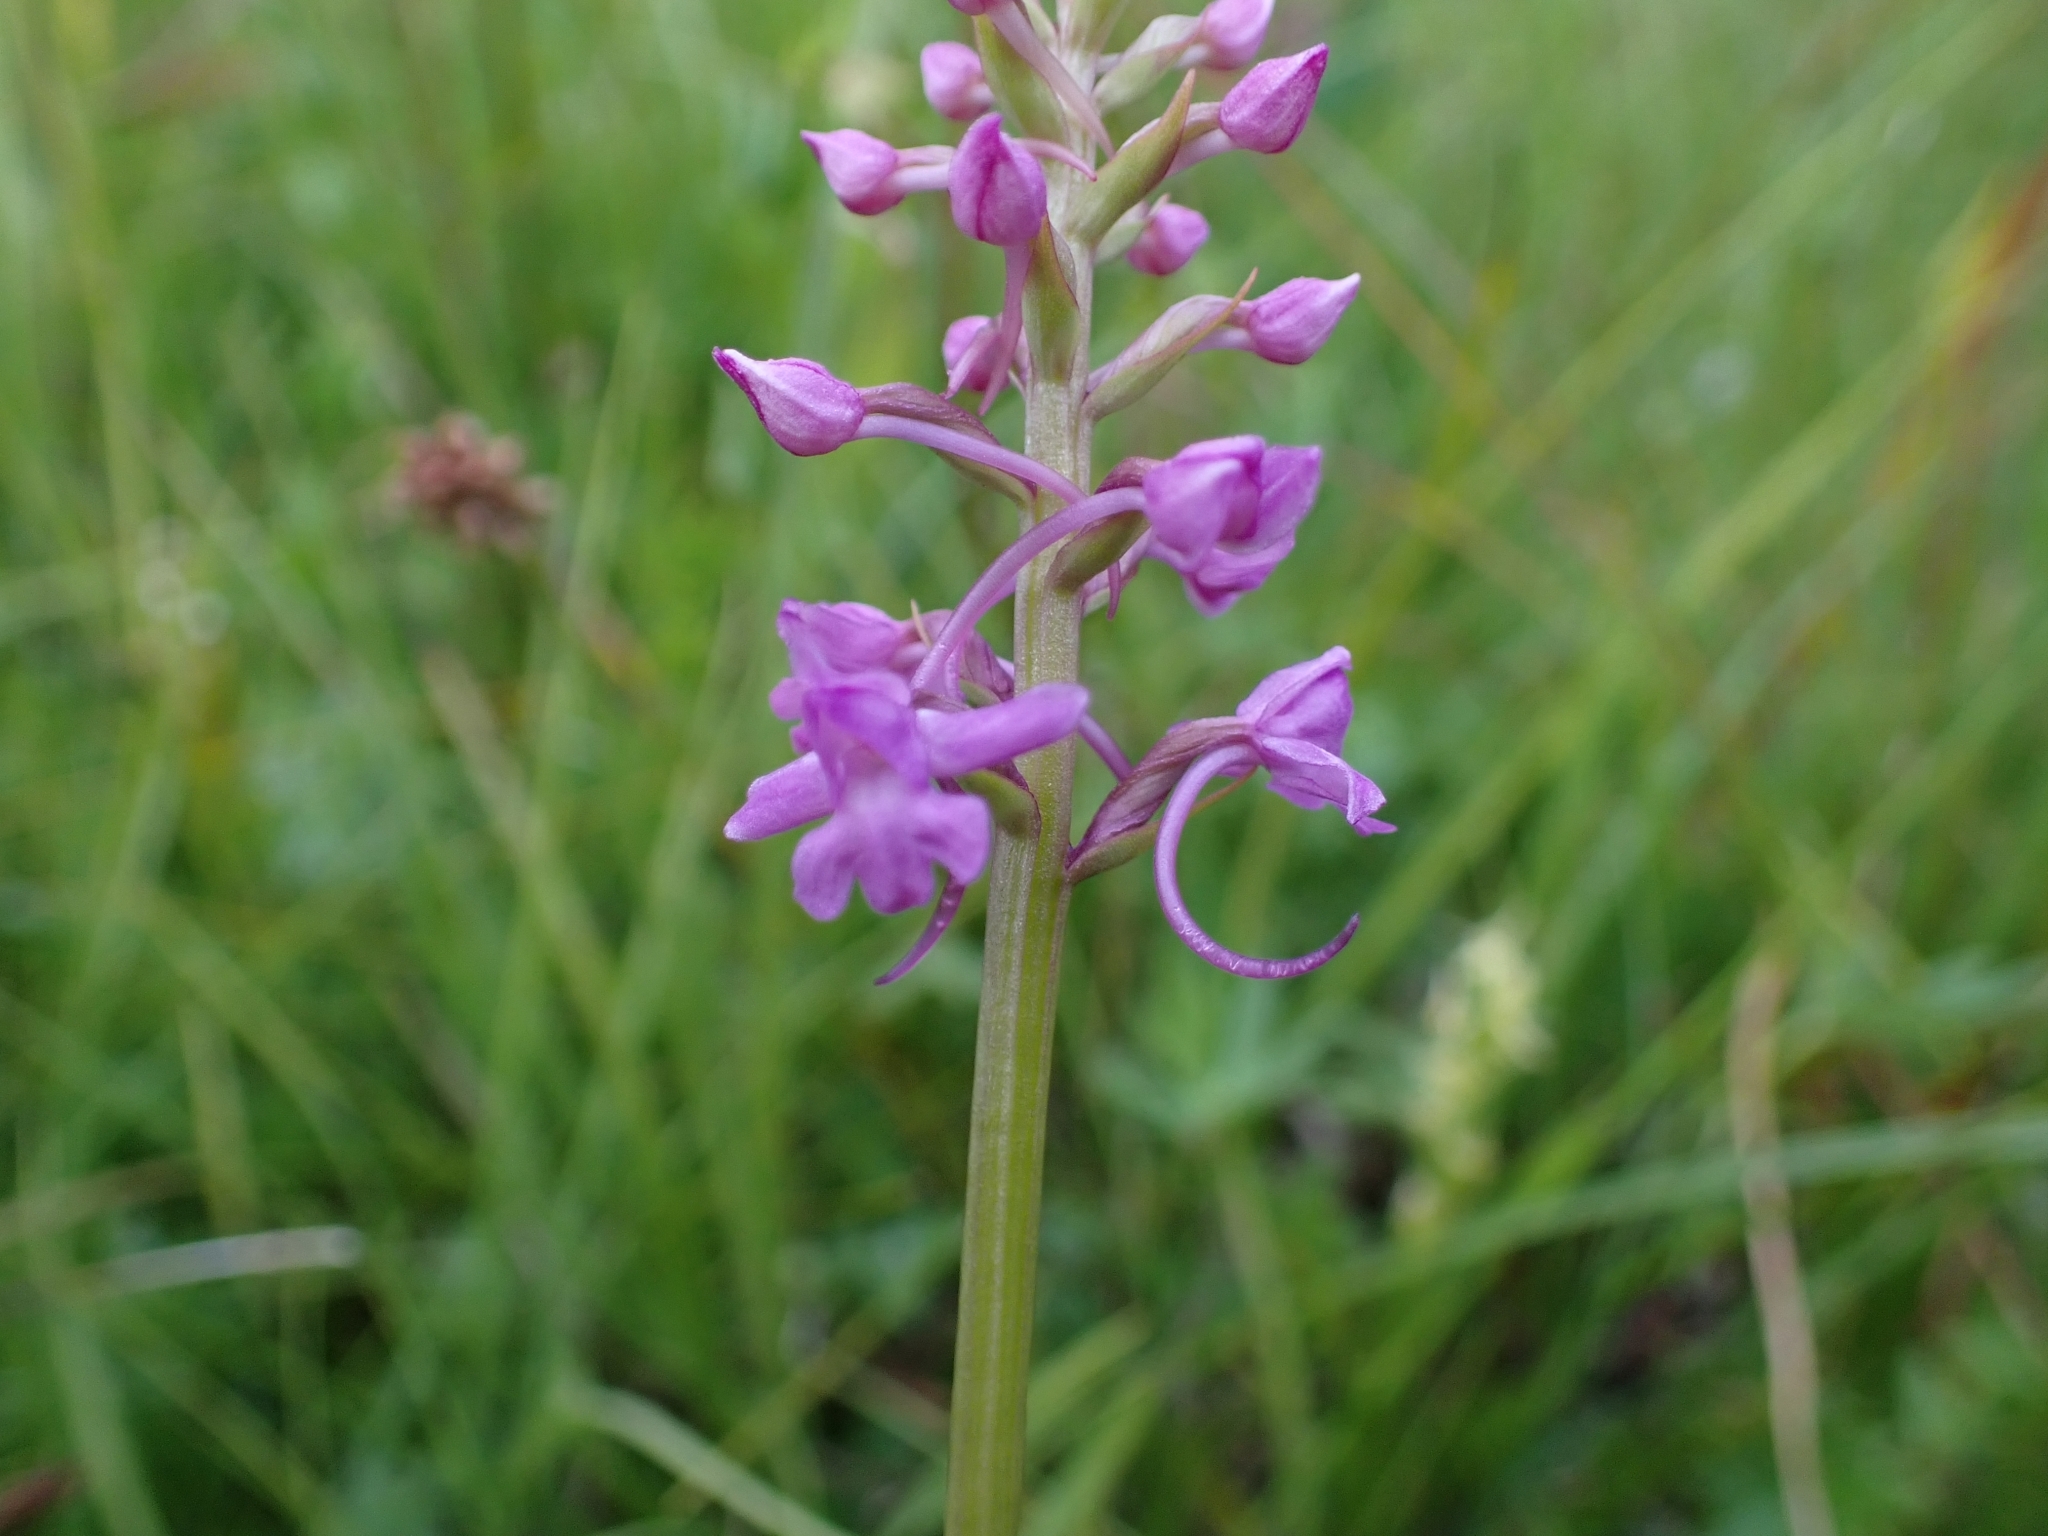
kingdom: Plantae
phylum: Tracheophyta
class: Liliopsida
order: Asparagales
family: Orchidaceae
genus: Gymnadenia
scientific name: Gymnadenia conopsea
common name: Fragrant orchid
